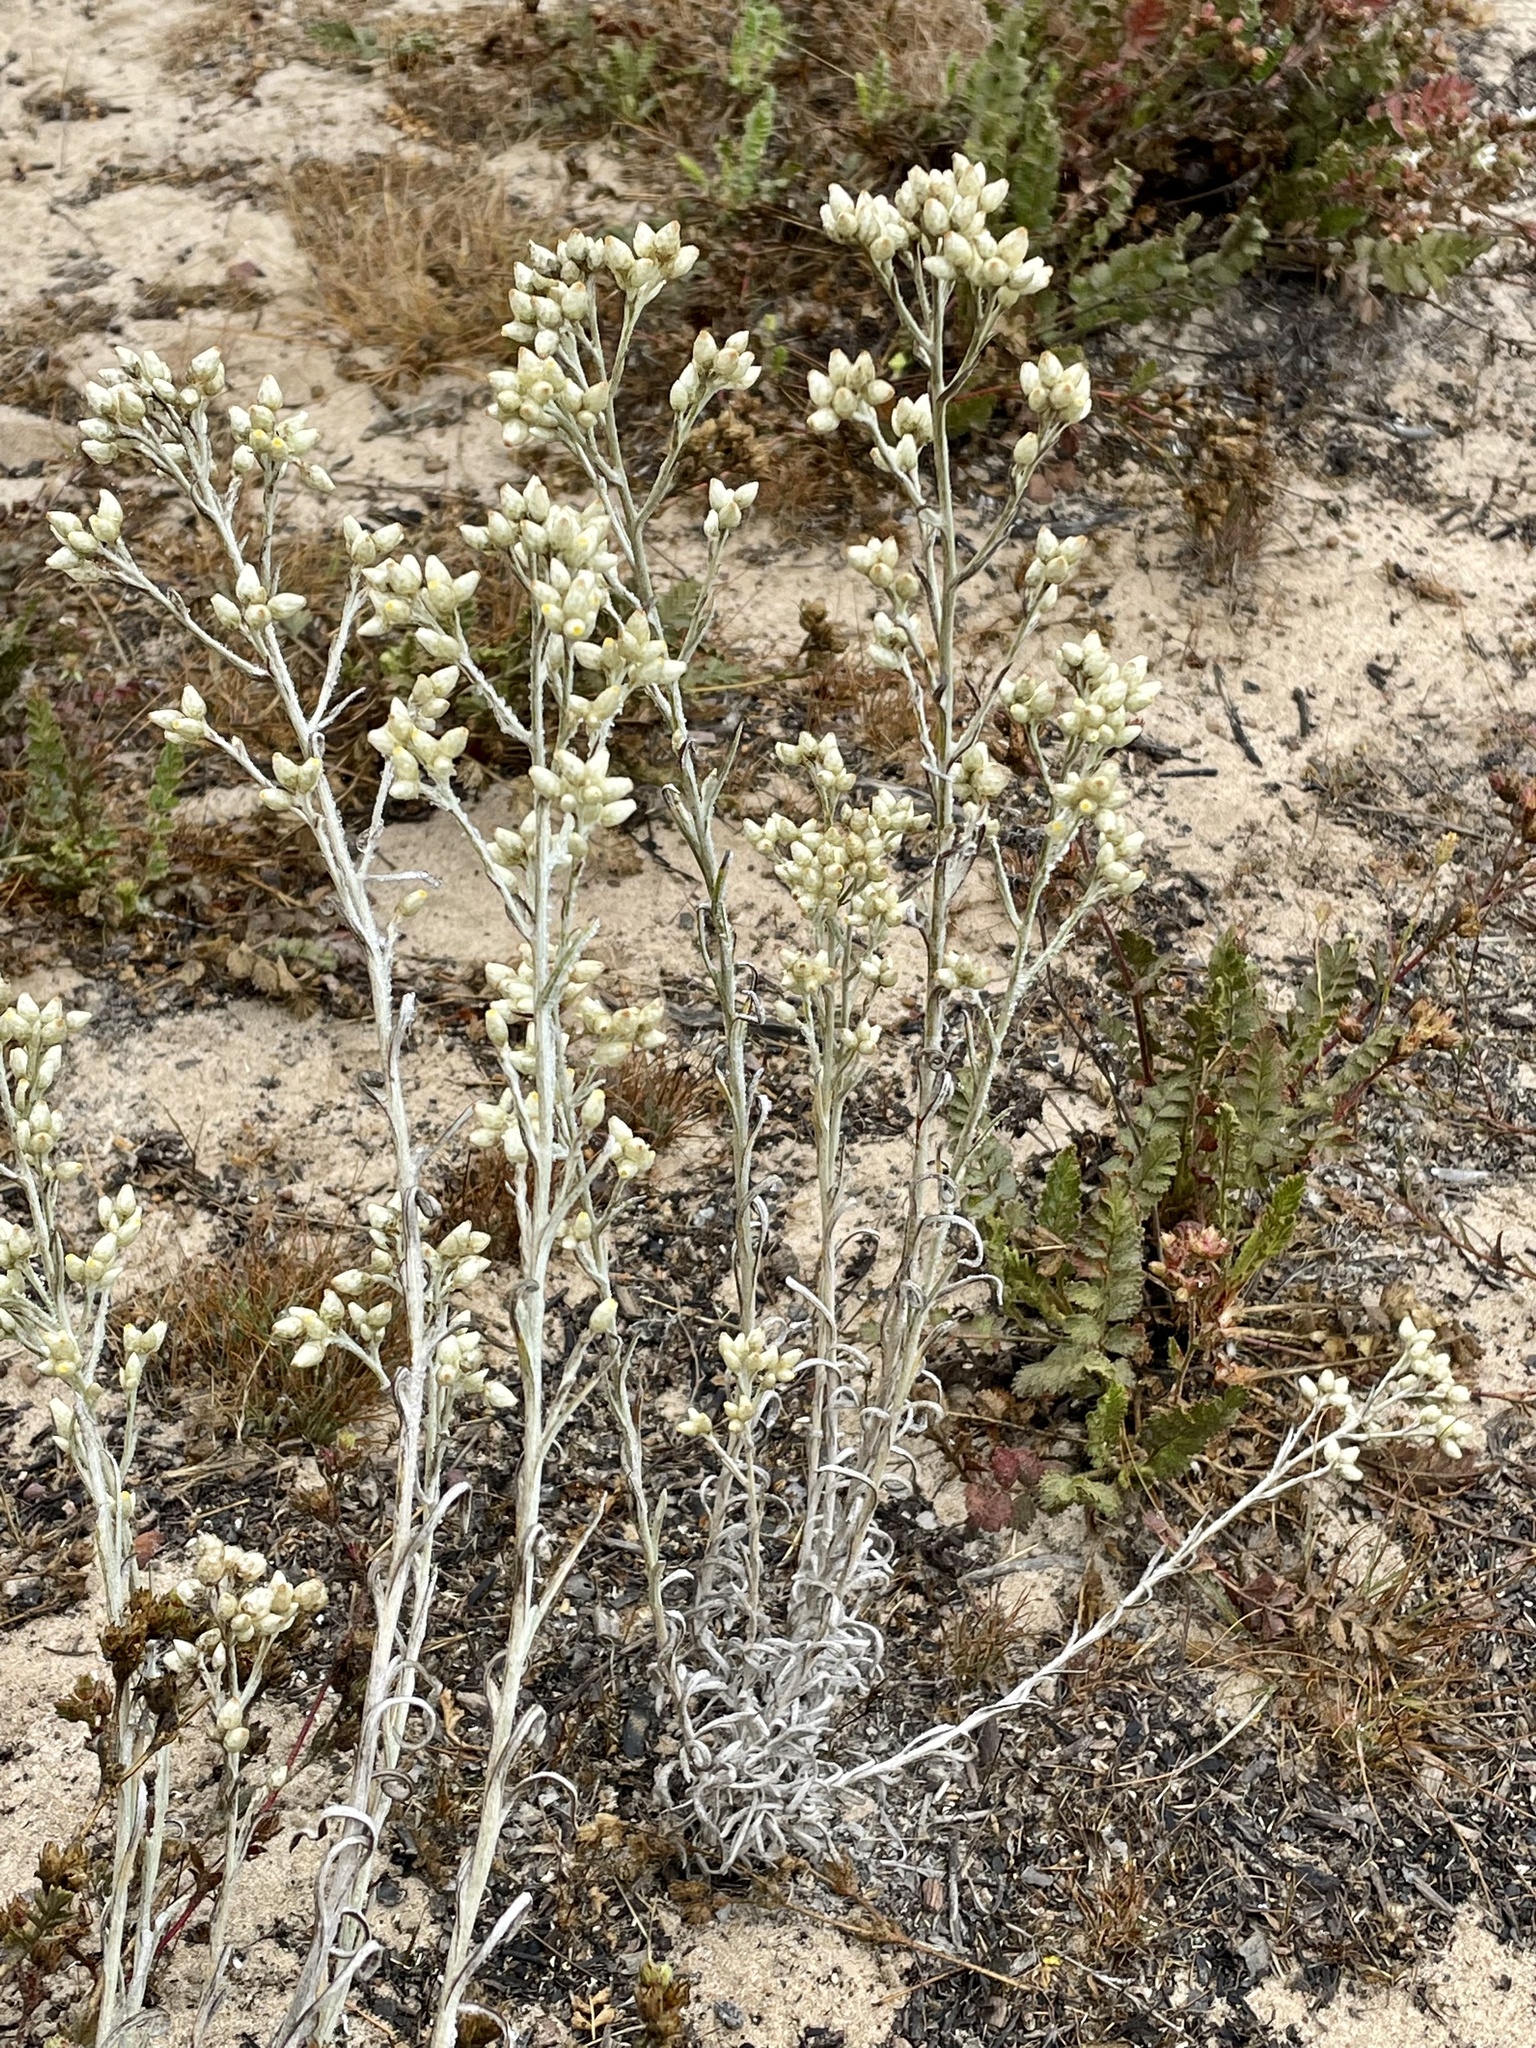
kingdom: Plantae
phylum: Tracheophyta
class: Magnoliopsida
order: Asterales
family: Asteraceae
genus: Pseudognaphalium
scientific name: Pseudognaphalium beneolens
